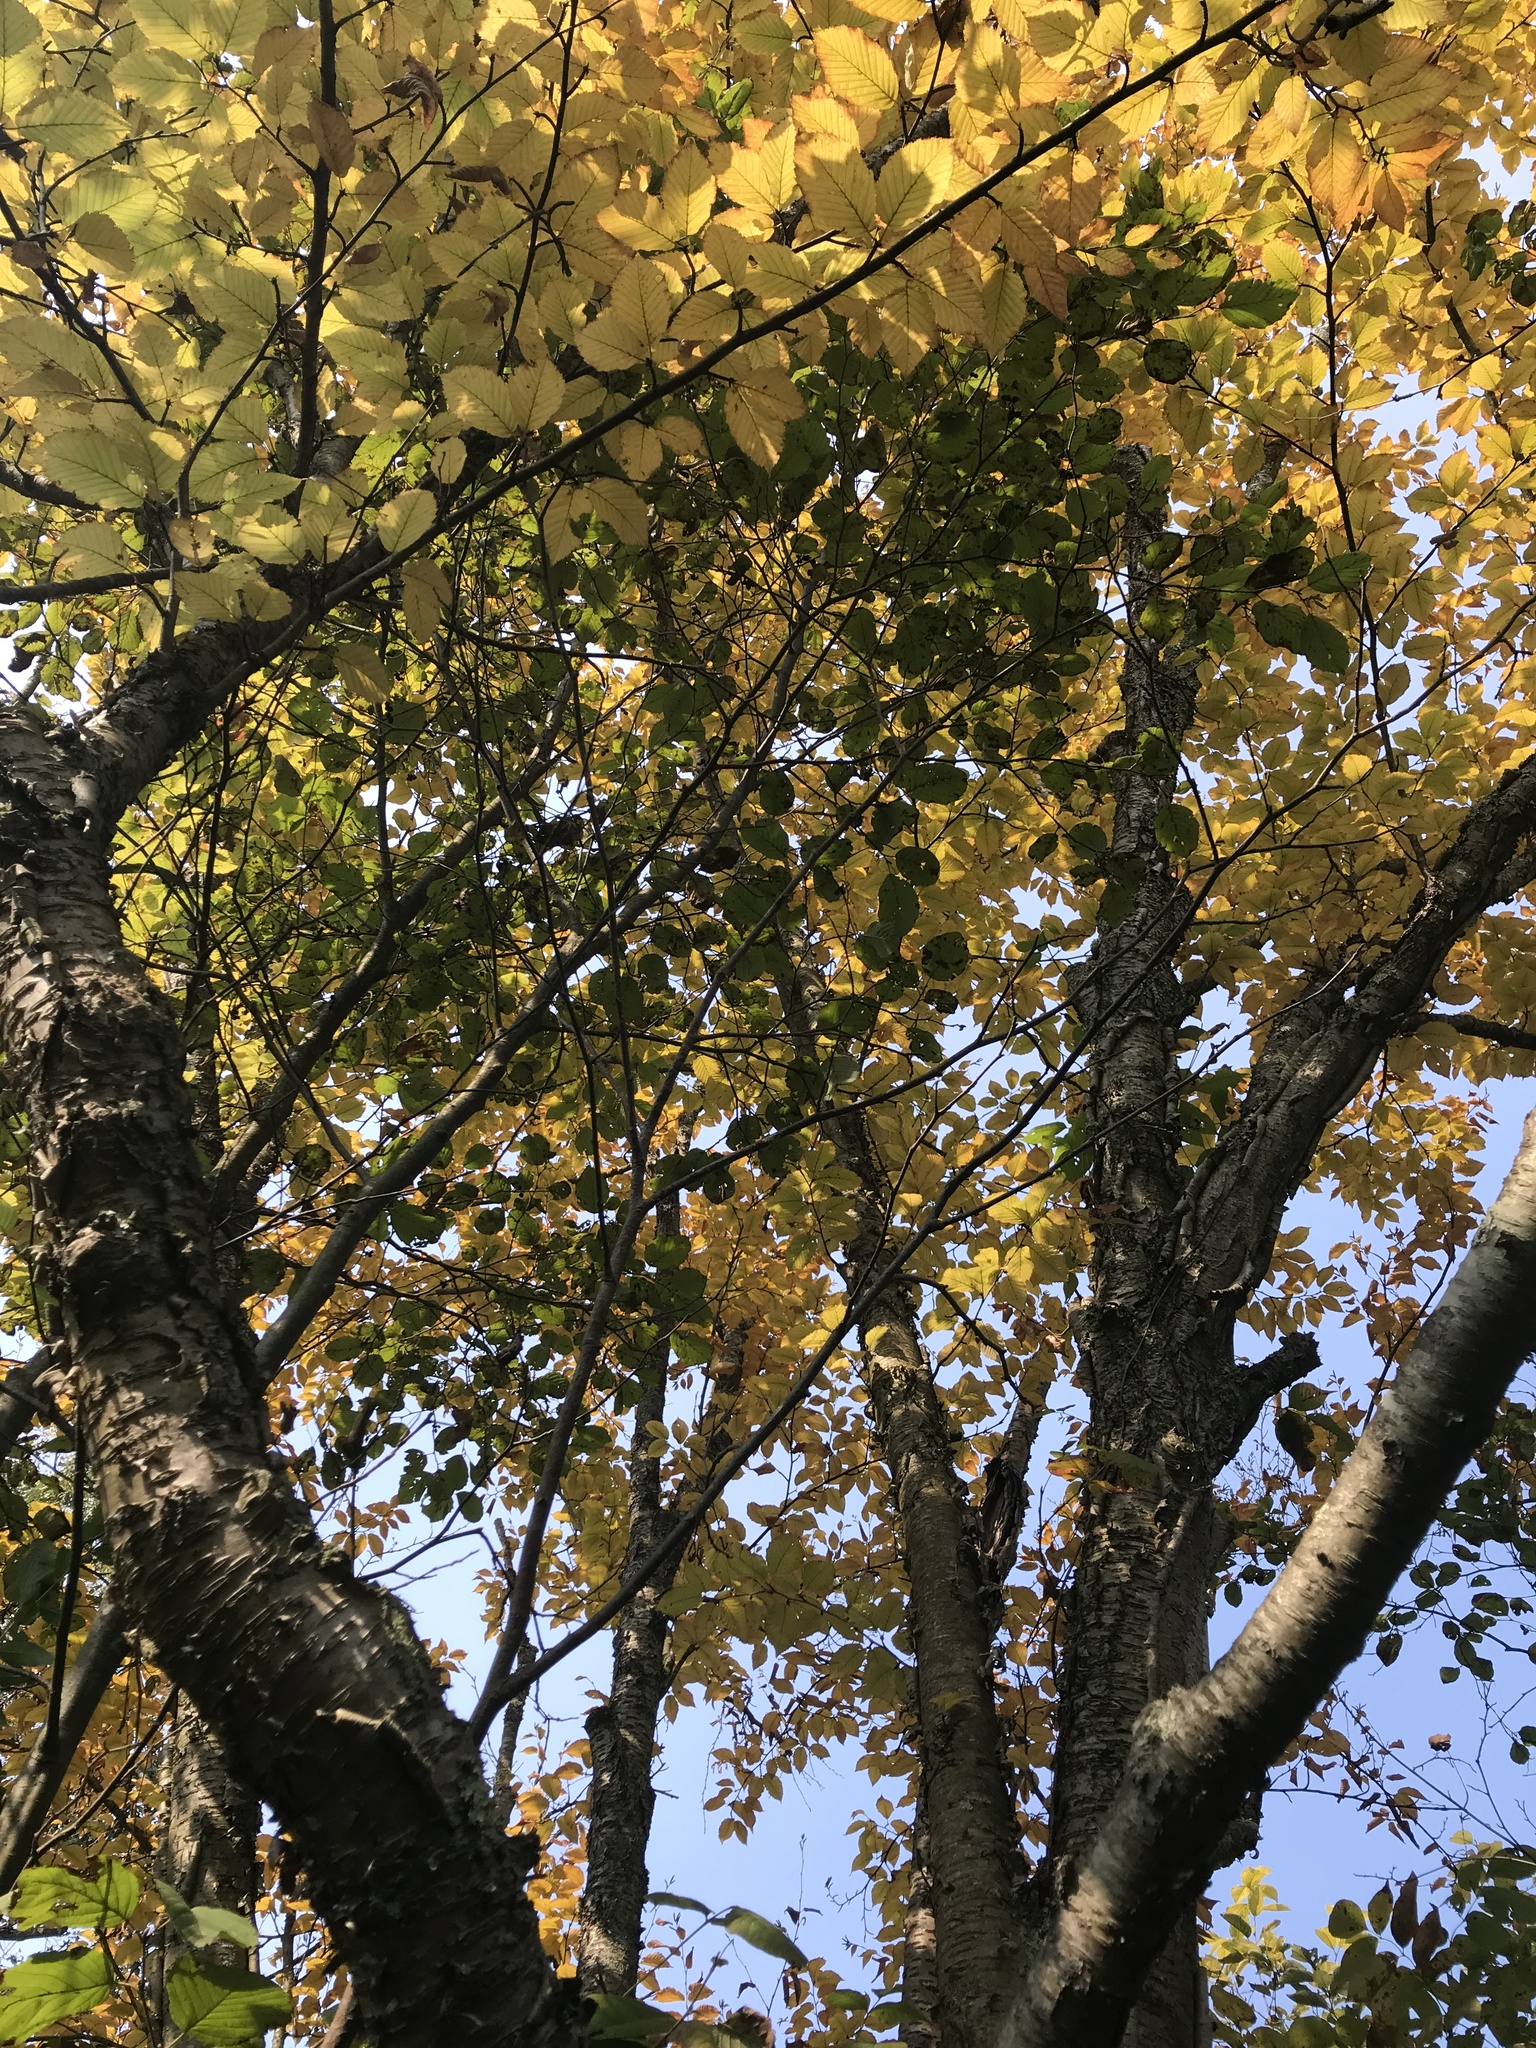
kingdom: Plantae
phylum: Tracheophyta
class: Magnoliopsida
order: Fagales
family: Betulaceae
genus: Betula
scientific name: Betula alleghaniensis
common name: Yellow birch
